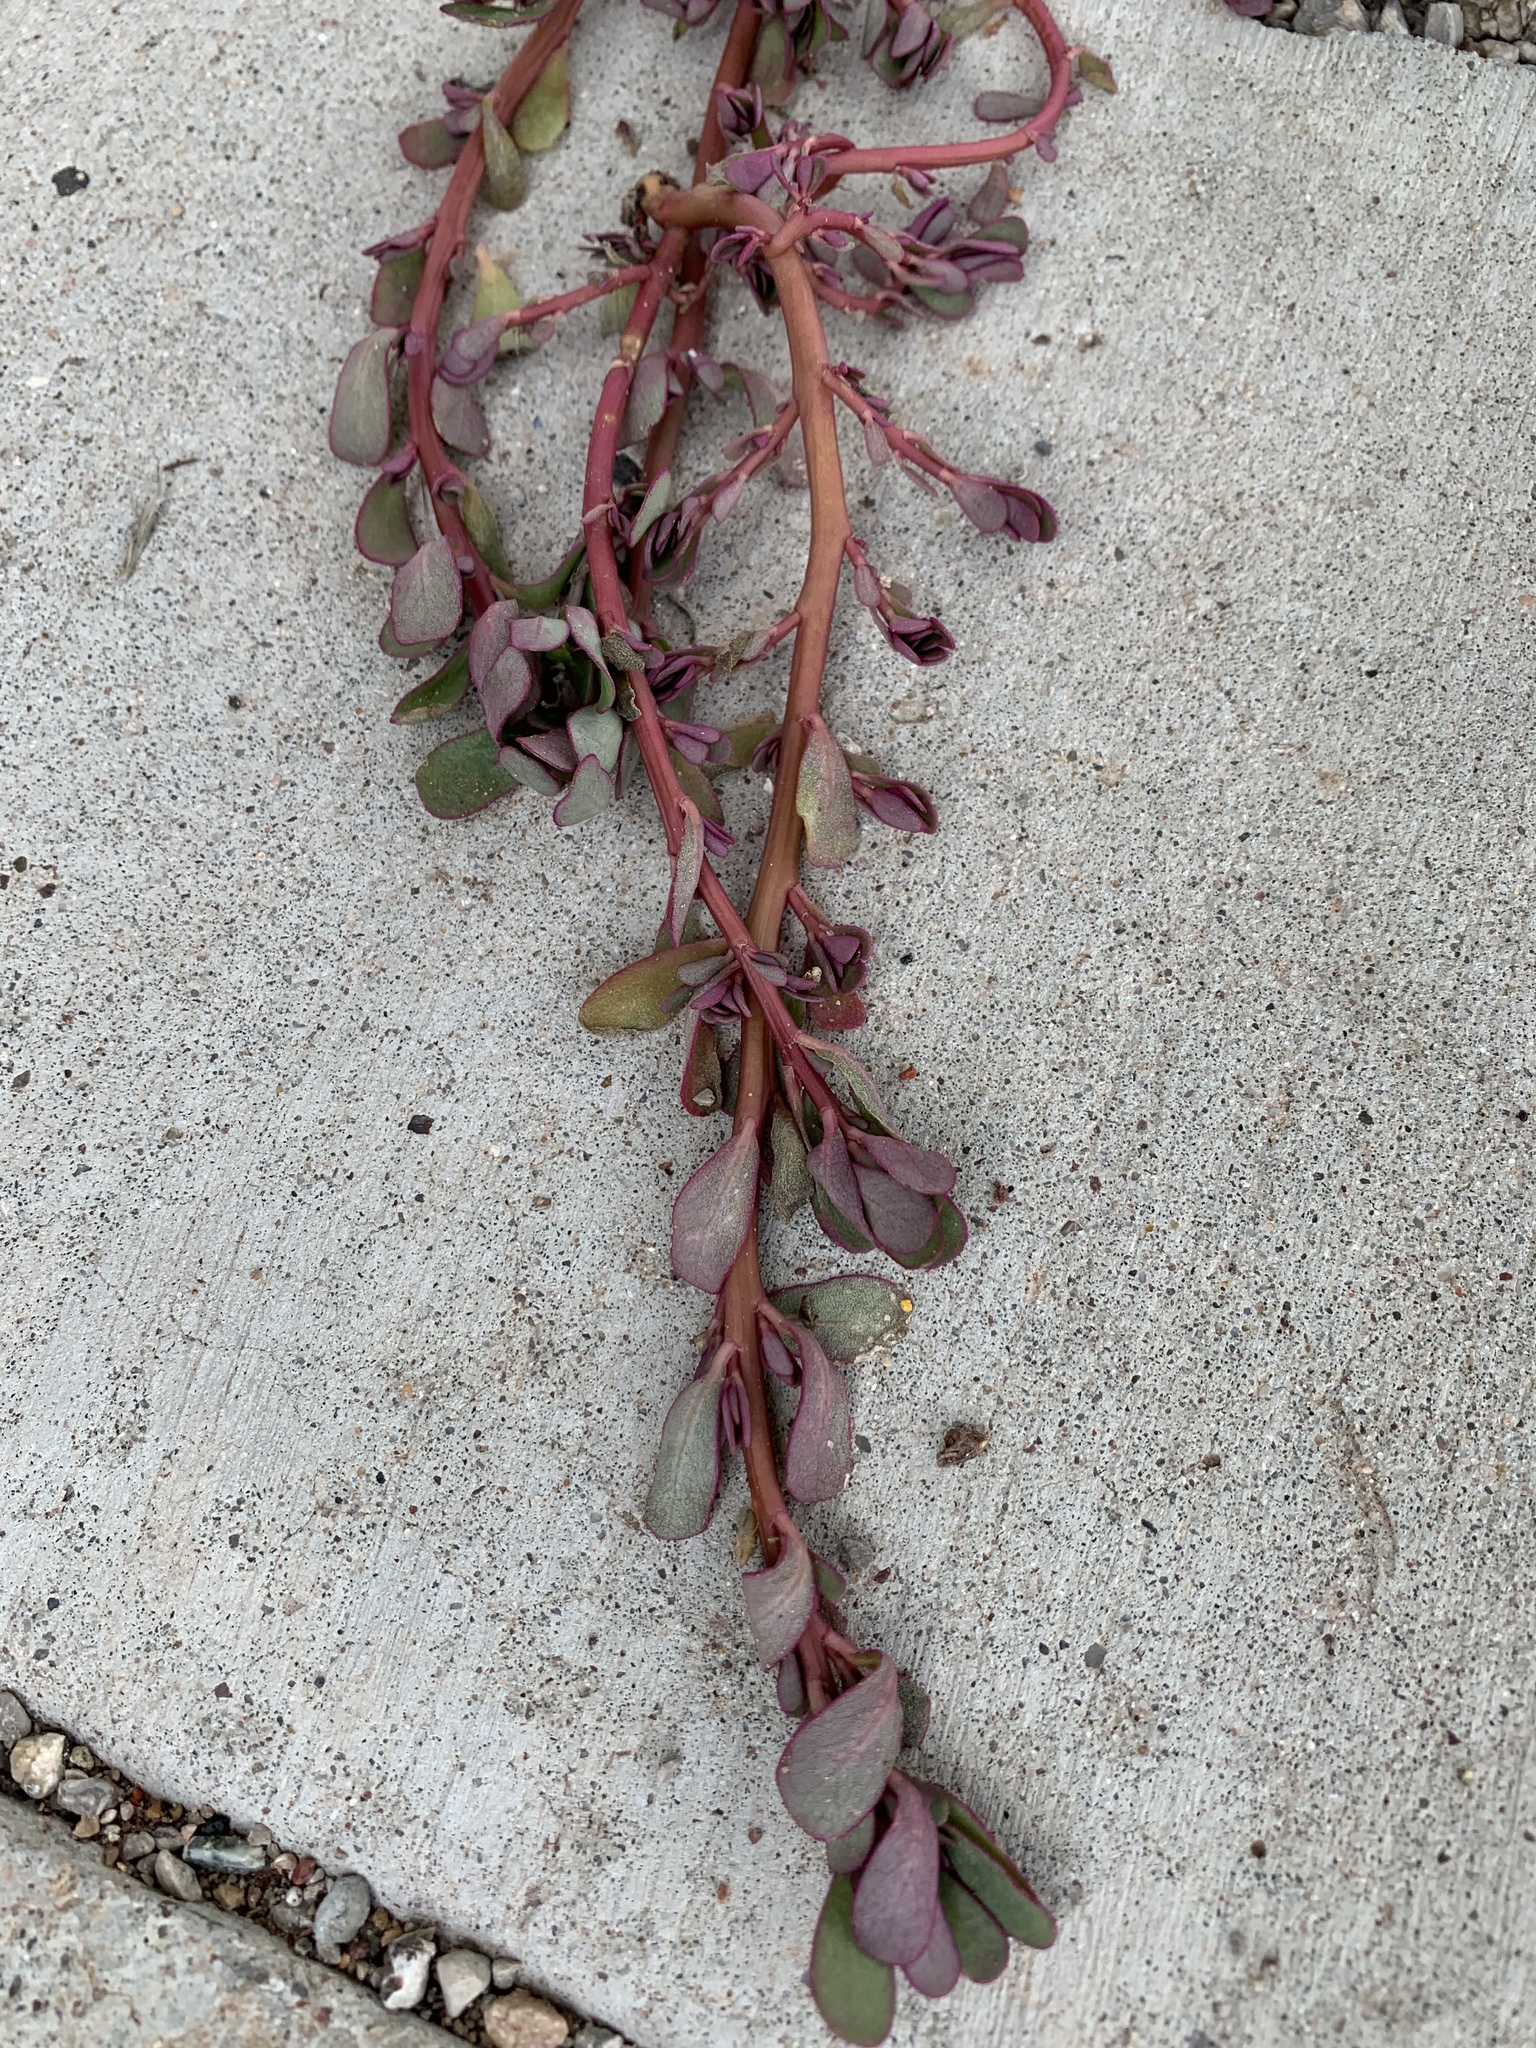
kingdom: Plantae
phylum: Tracheophyta
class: Magnoliopsida
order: Caryophyllales
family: Portulacaceae
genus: Portulaca
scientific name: Portulaca oleracea
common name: Common purslane
